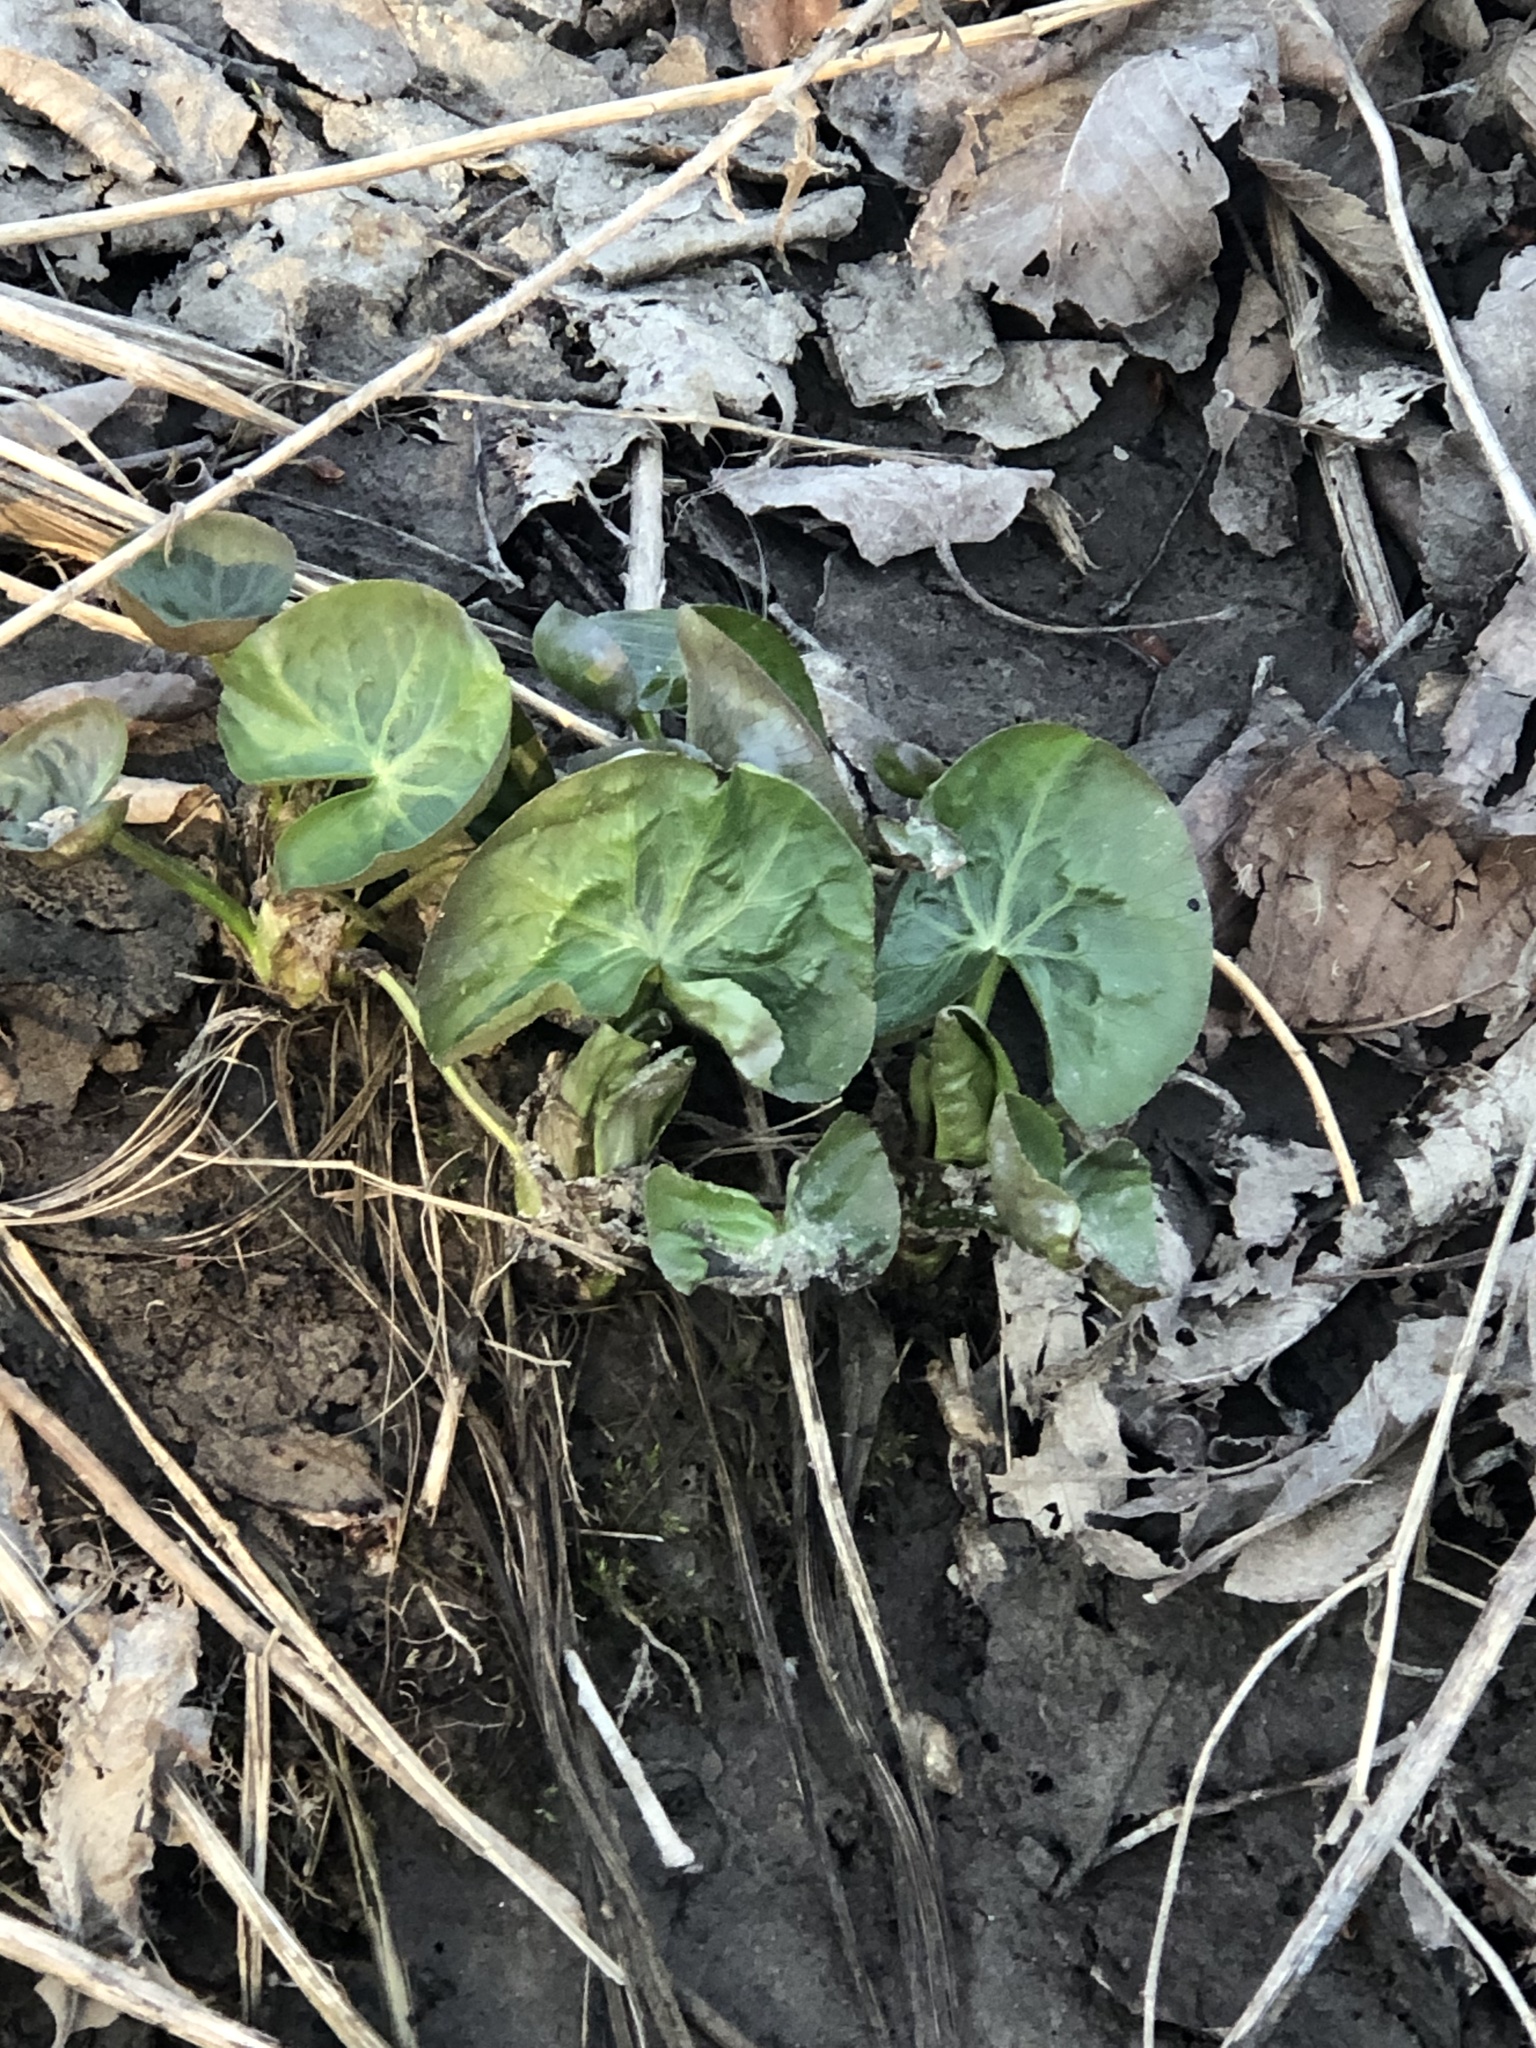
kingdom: Plantae
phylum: Tracheophyta
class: Magnoliopsida
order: Ranunculales
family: Ranunculaceae
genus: Caltha
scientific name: Caltha palustris
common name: Marsh marigold
